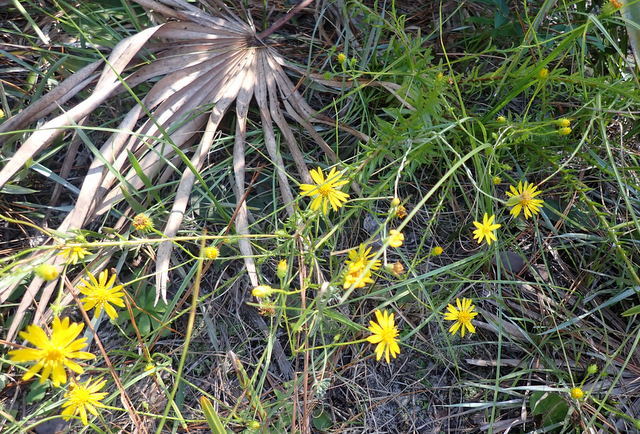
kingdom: Plantae
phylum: Tracheophyta
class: Magnoliopsida
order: Asterales
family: Asteraceae
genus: Chrysopsis
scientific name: Chrysopsis gossypina
